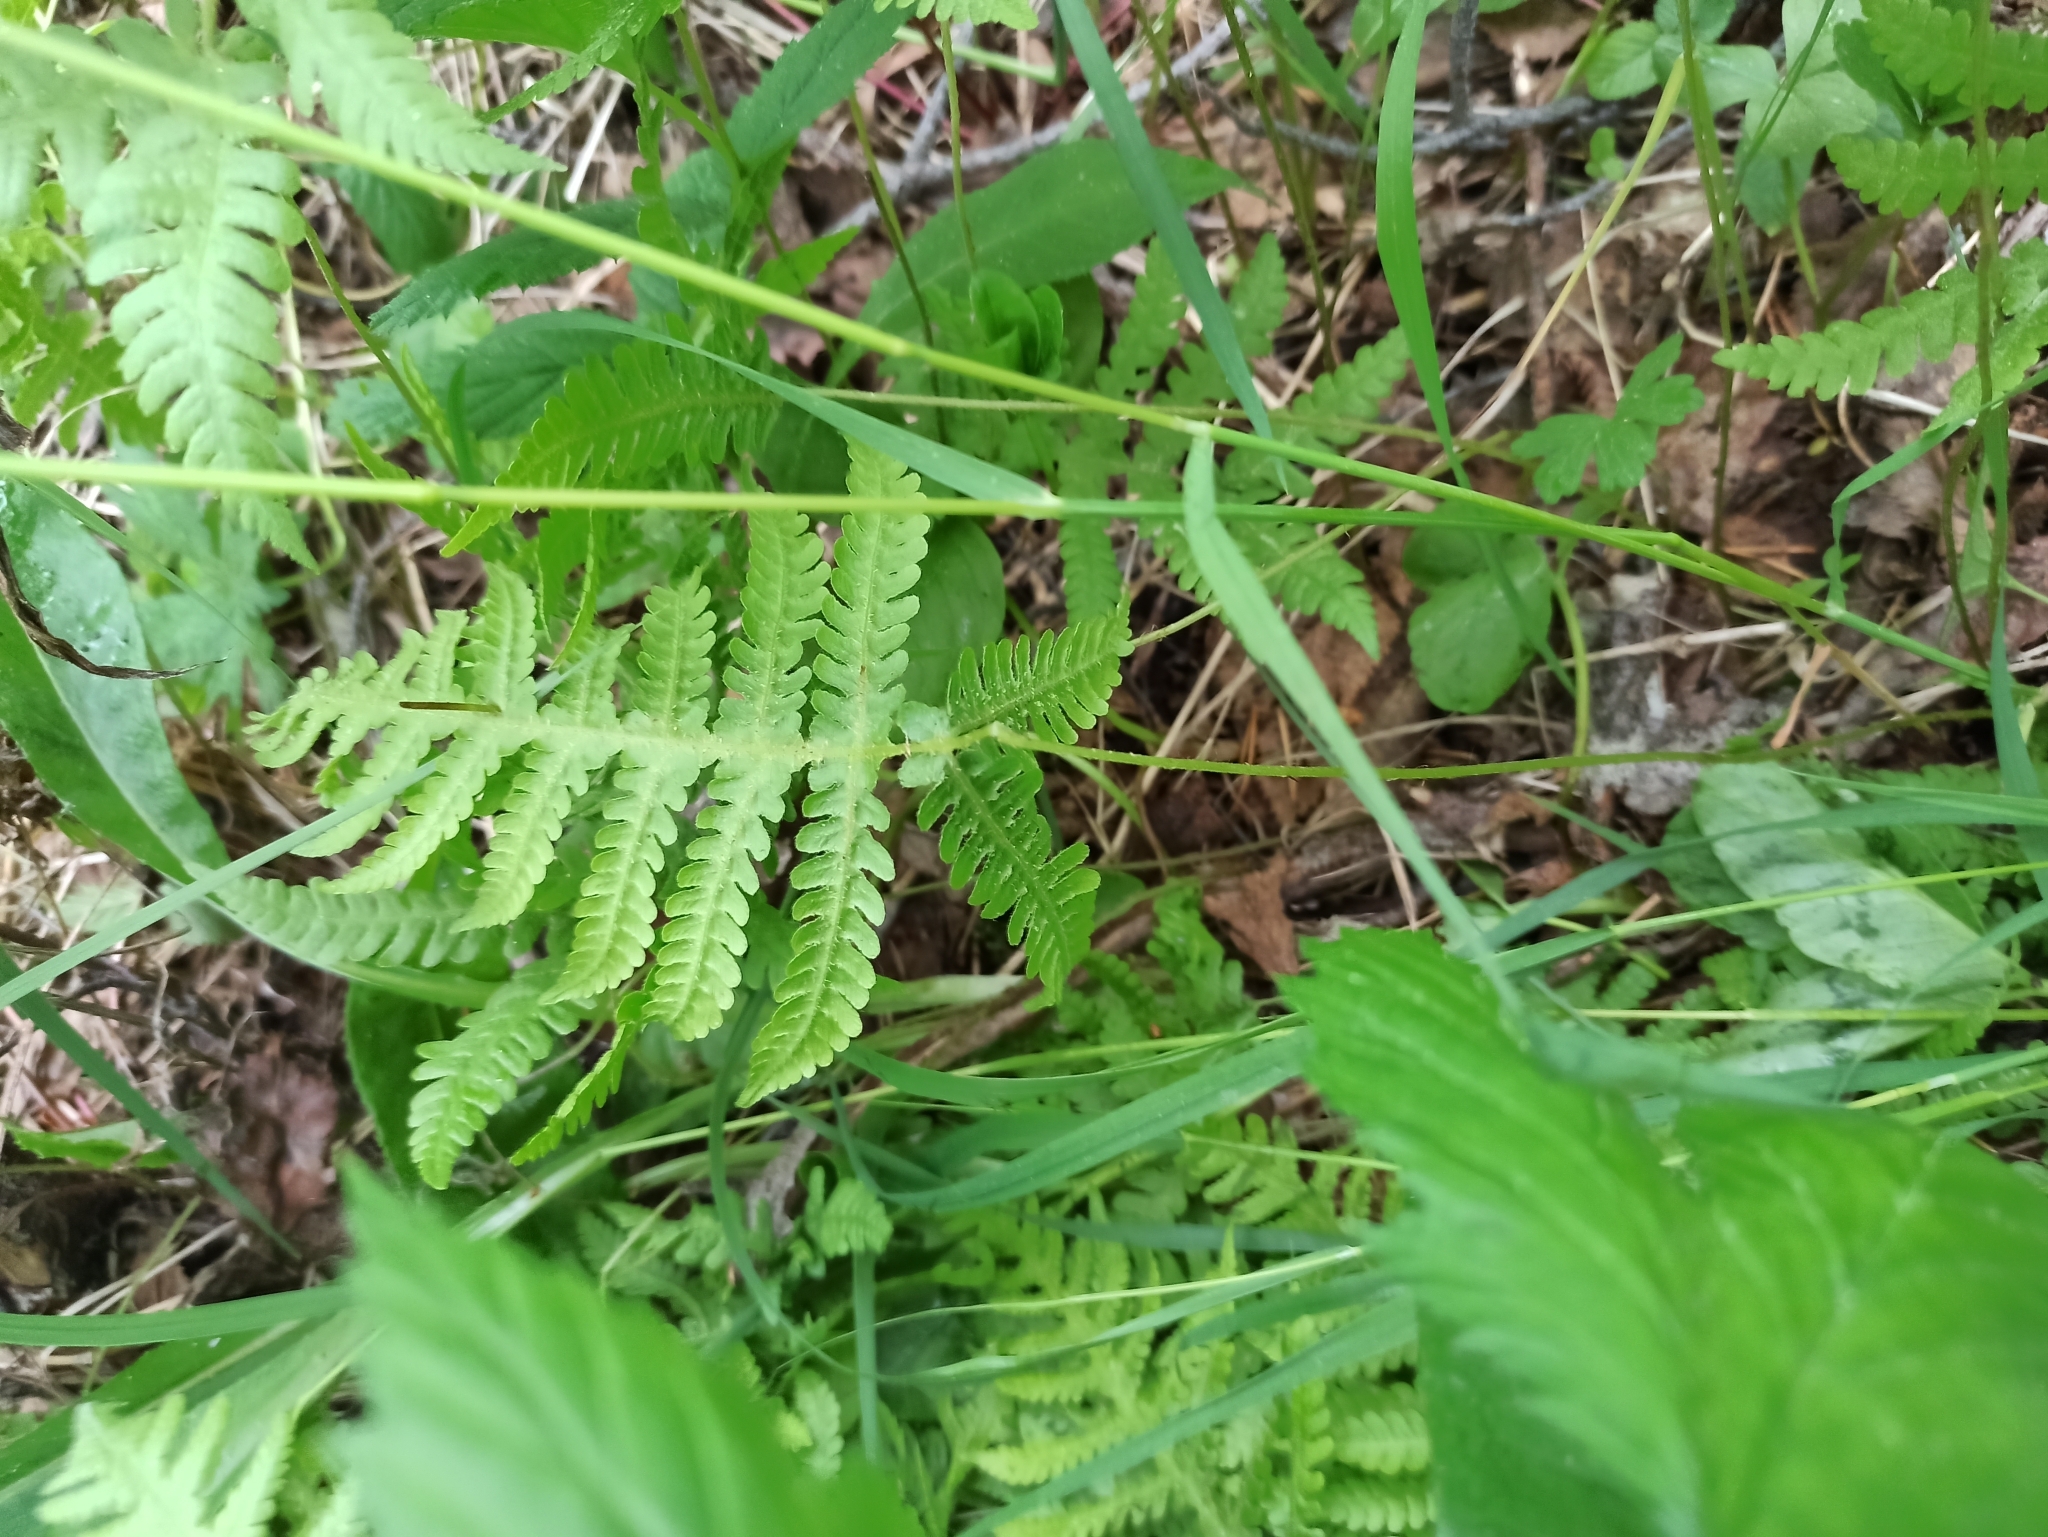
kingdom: Plantae
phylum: Tracheophyta
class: Polypodiopsida
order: Polypodiales
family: Thelypteridaceae
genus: Phegopteris
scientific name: Phegopteris connectilis
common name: Beech fern
